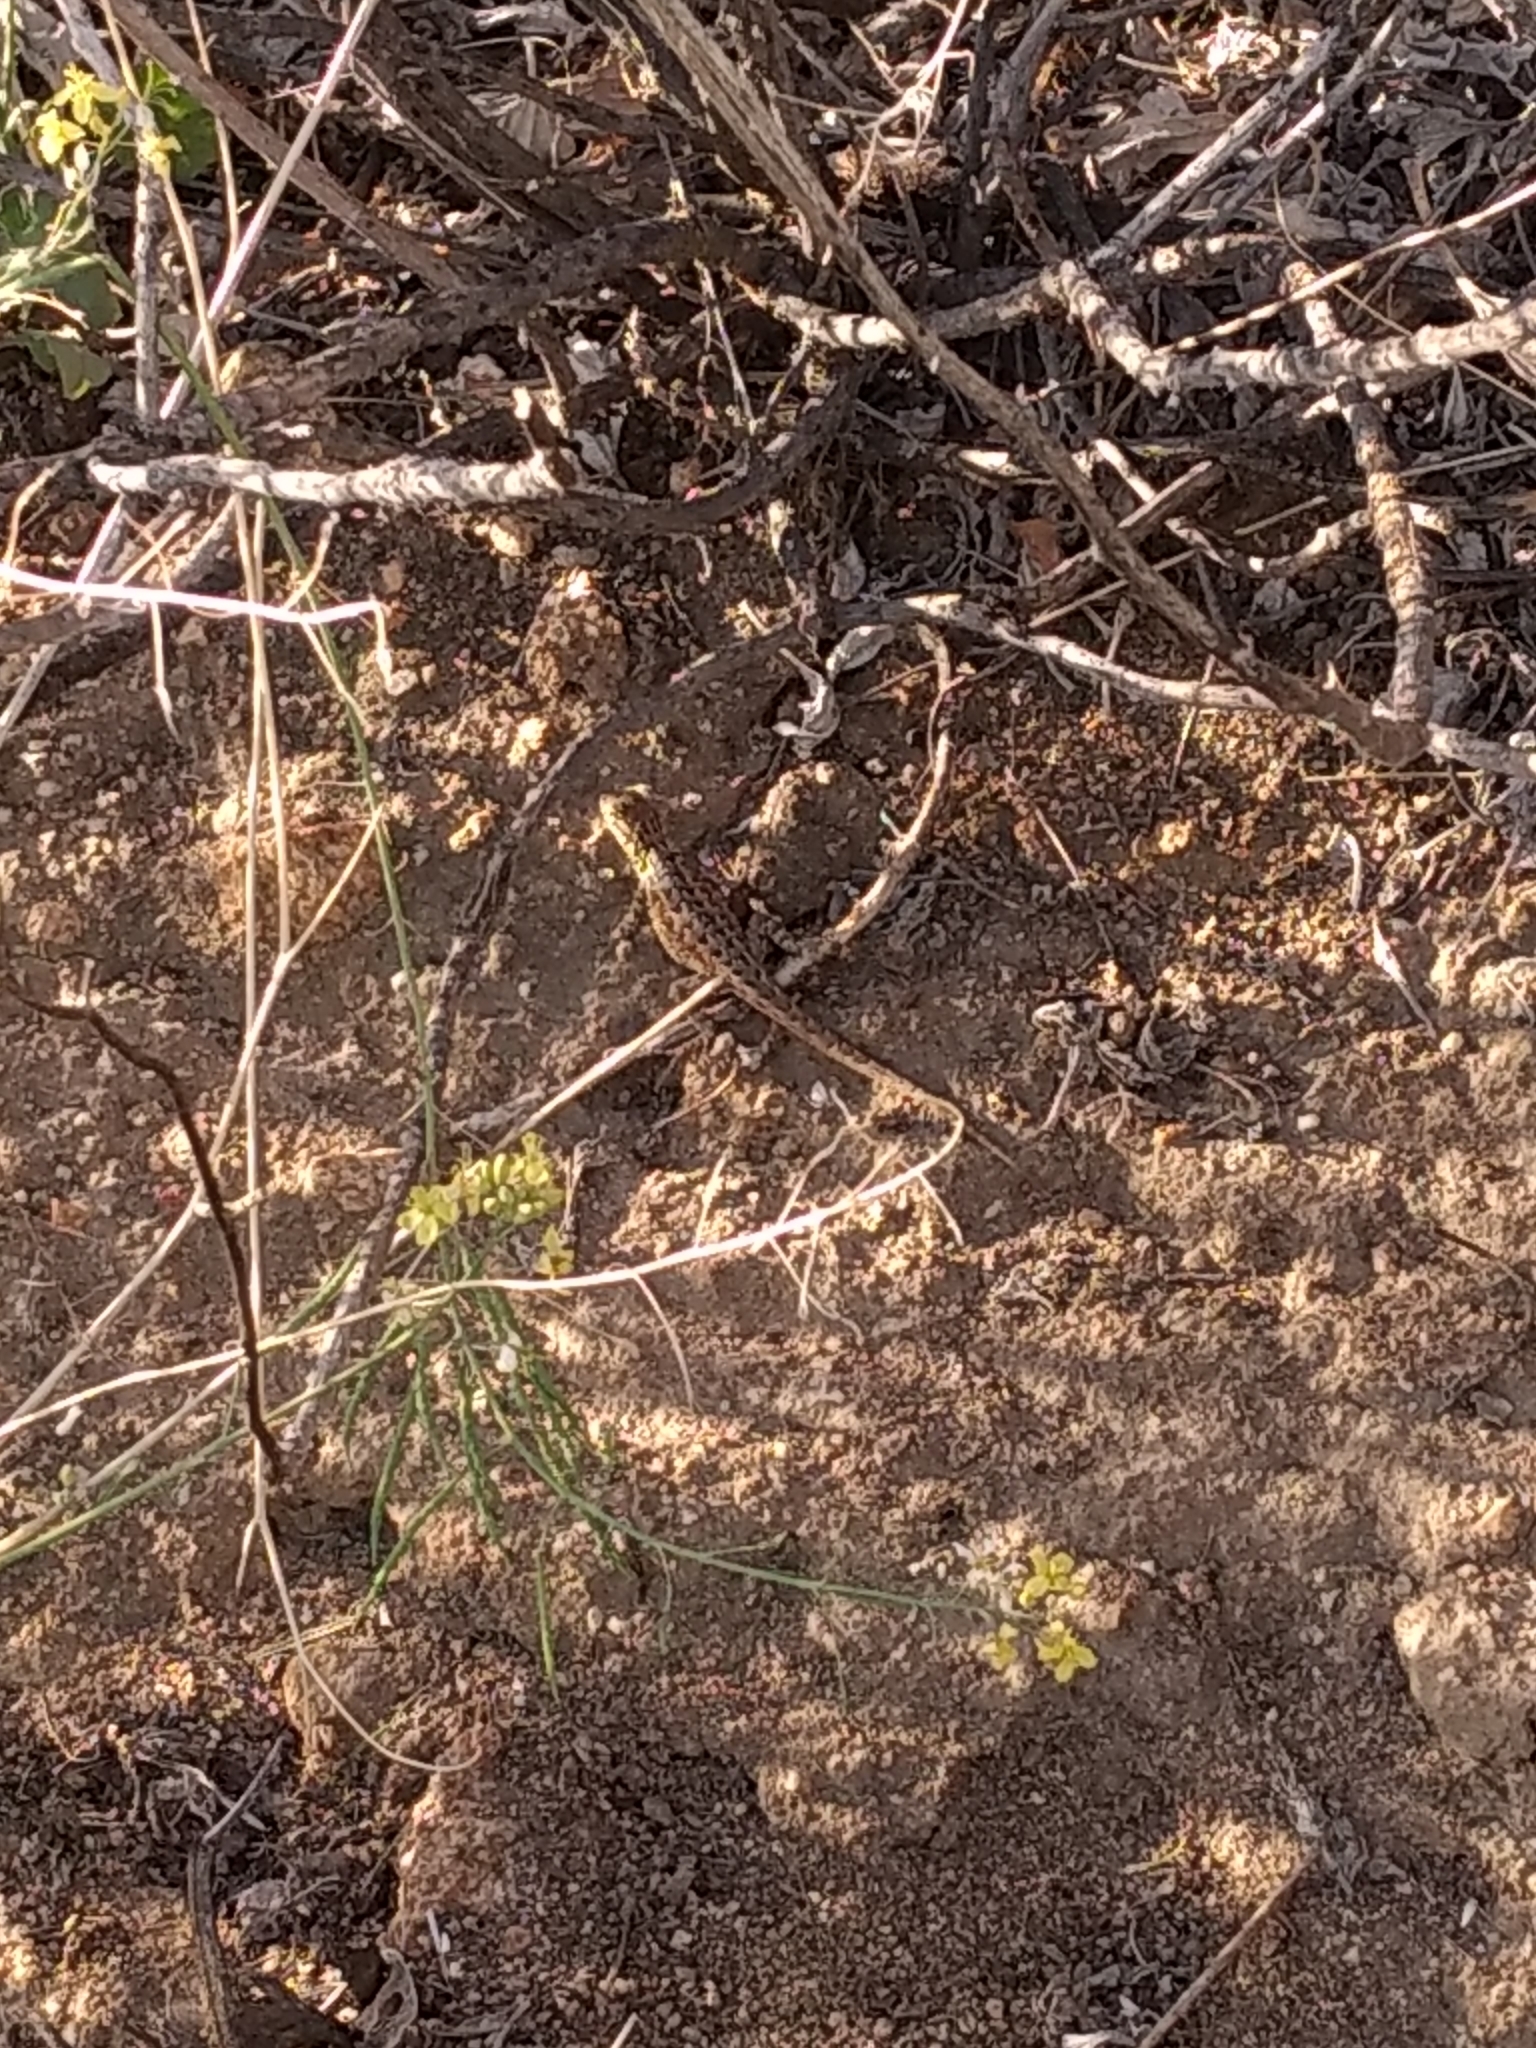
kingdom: Animalia
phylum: Chordata
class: Squamata
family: Phrynosomatidae
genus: Uta
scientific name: Uta stansburiana
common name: Side-blotched lizard
